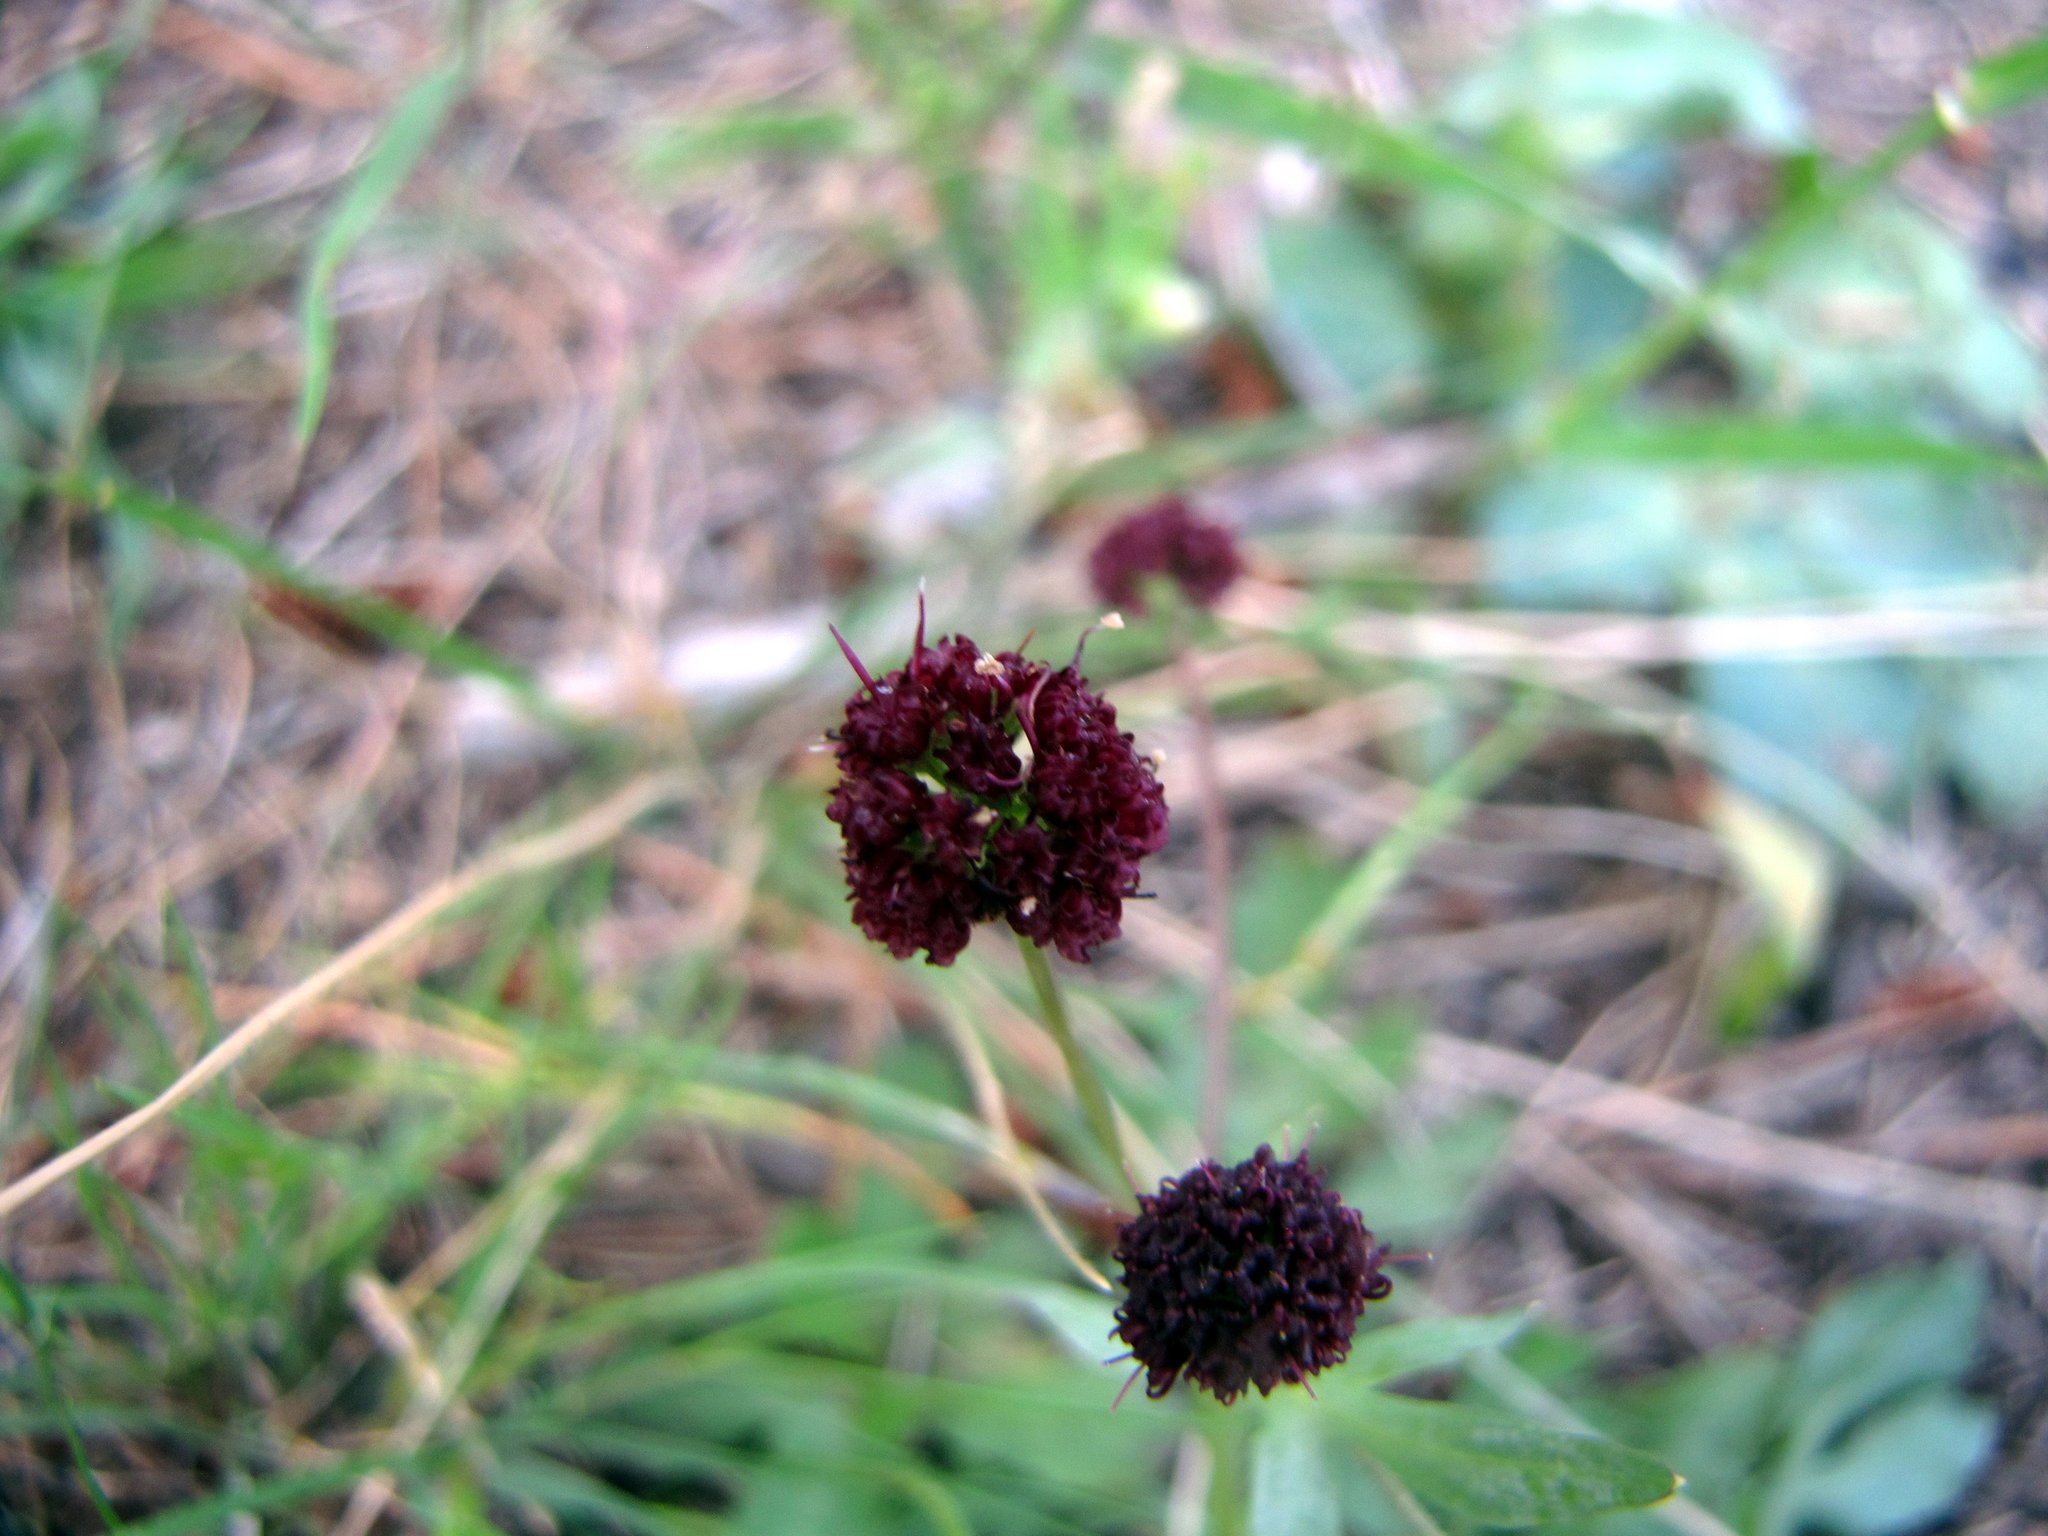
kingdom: Plantae
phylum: Tracheophyta
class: Magnoliopsida
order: Apiales
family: Apiaceae
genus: Sanicula
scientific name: Sanicula bipinnatifida
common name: Shoe-buttons
